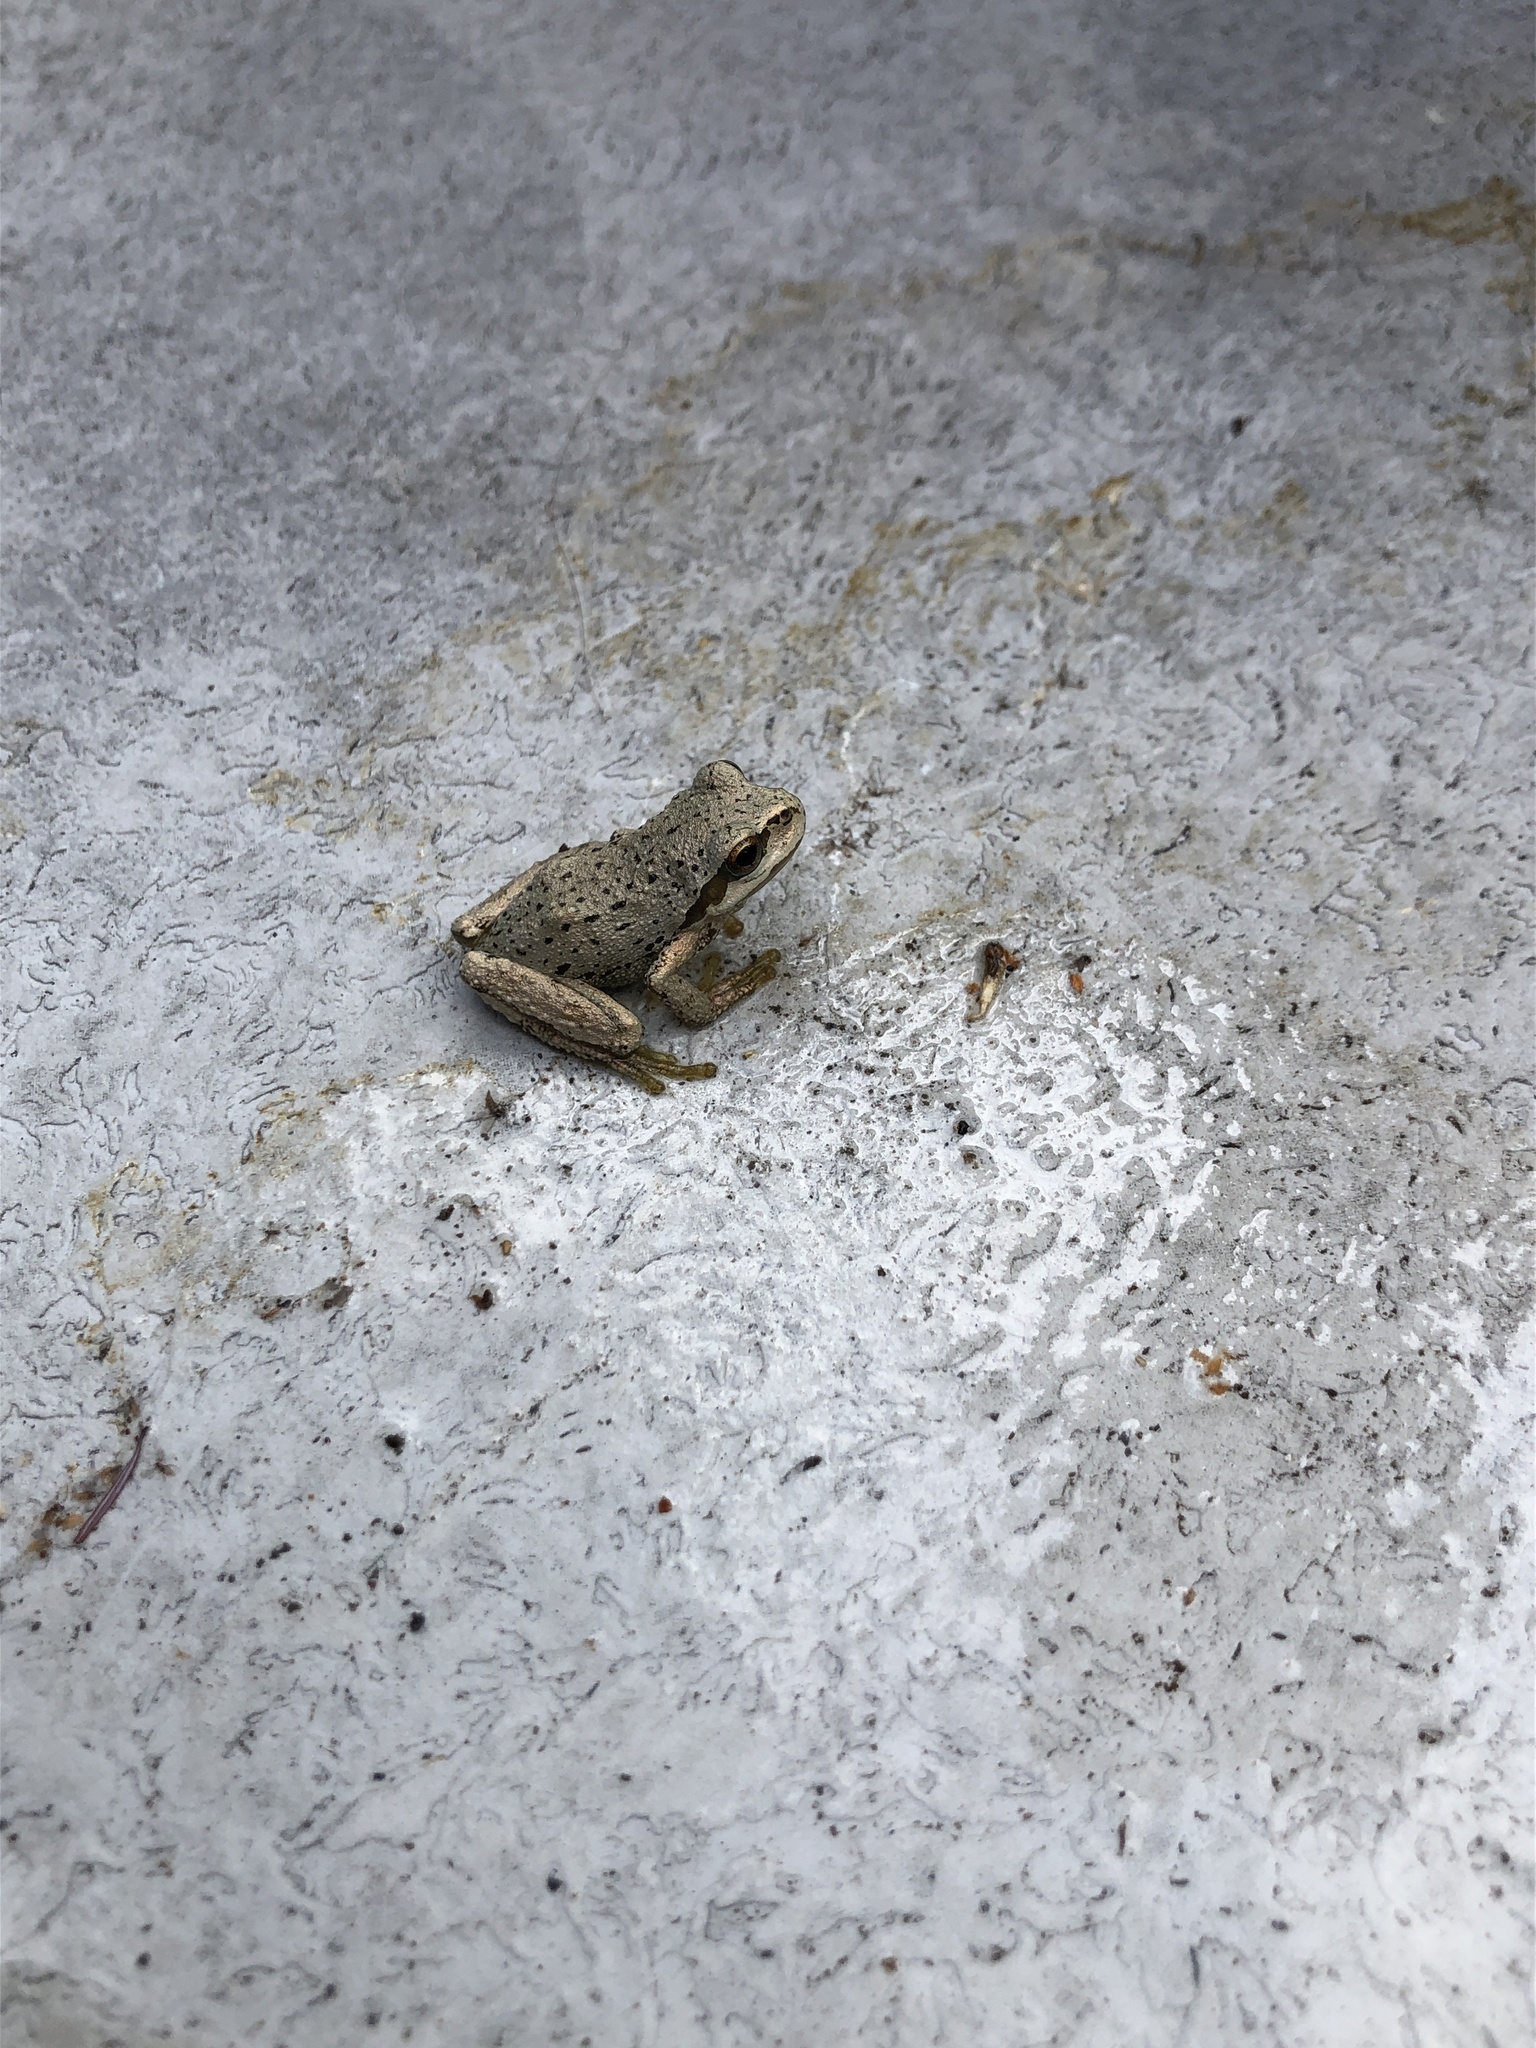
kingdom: Animalia
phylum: Chordata
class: Amphibia
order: Anura
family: Hylidae
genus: Pseudacris
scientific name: Pseudacris regilla
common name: Pacific chorus frog
